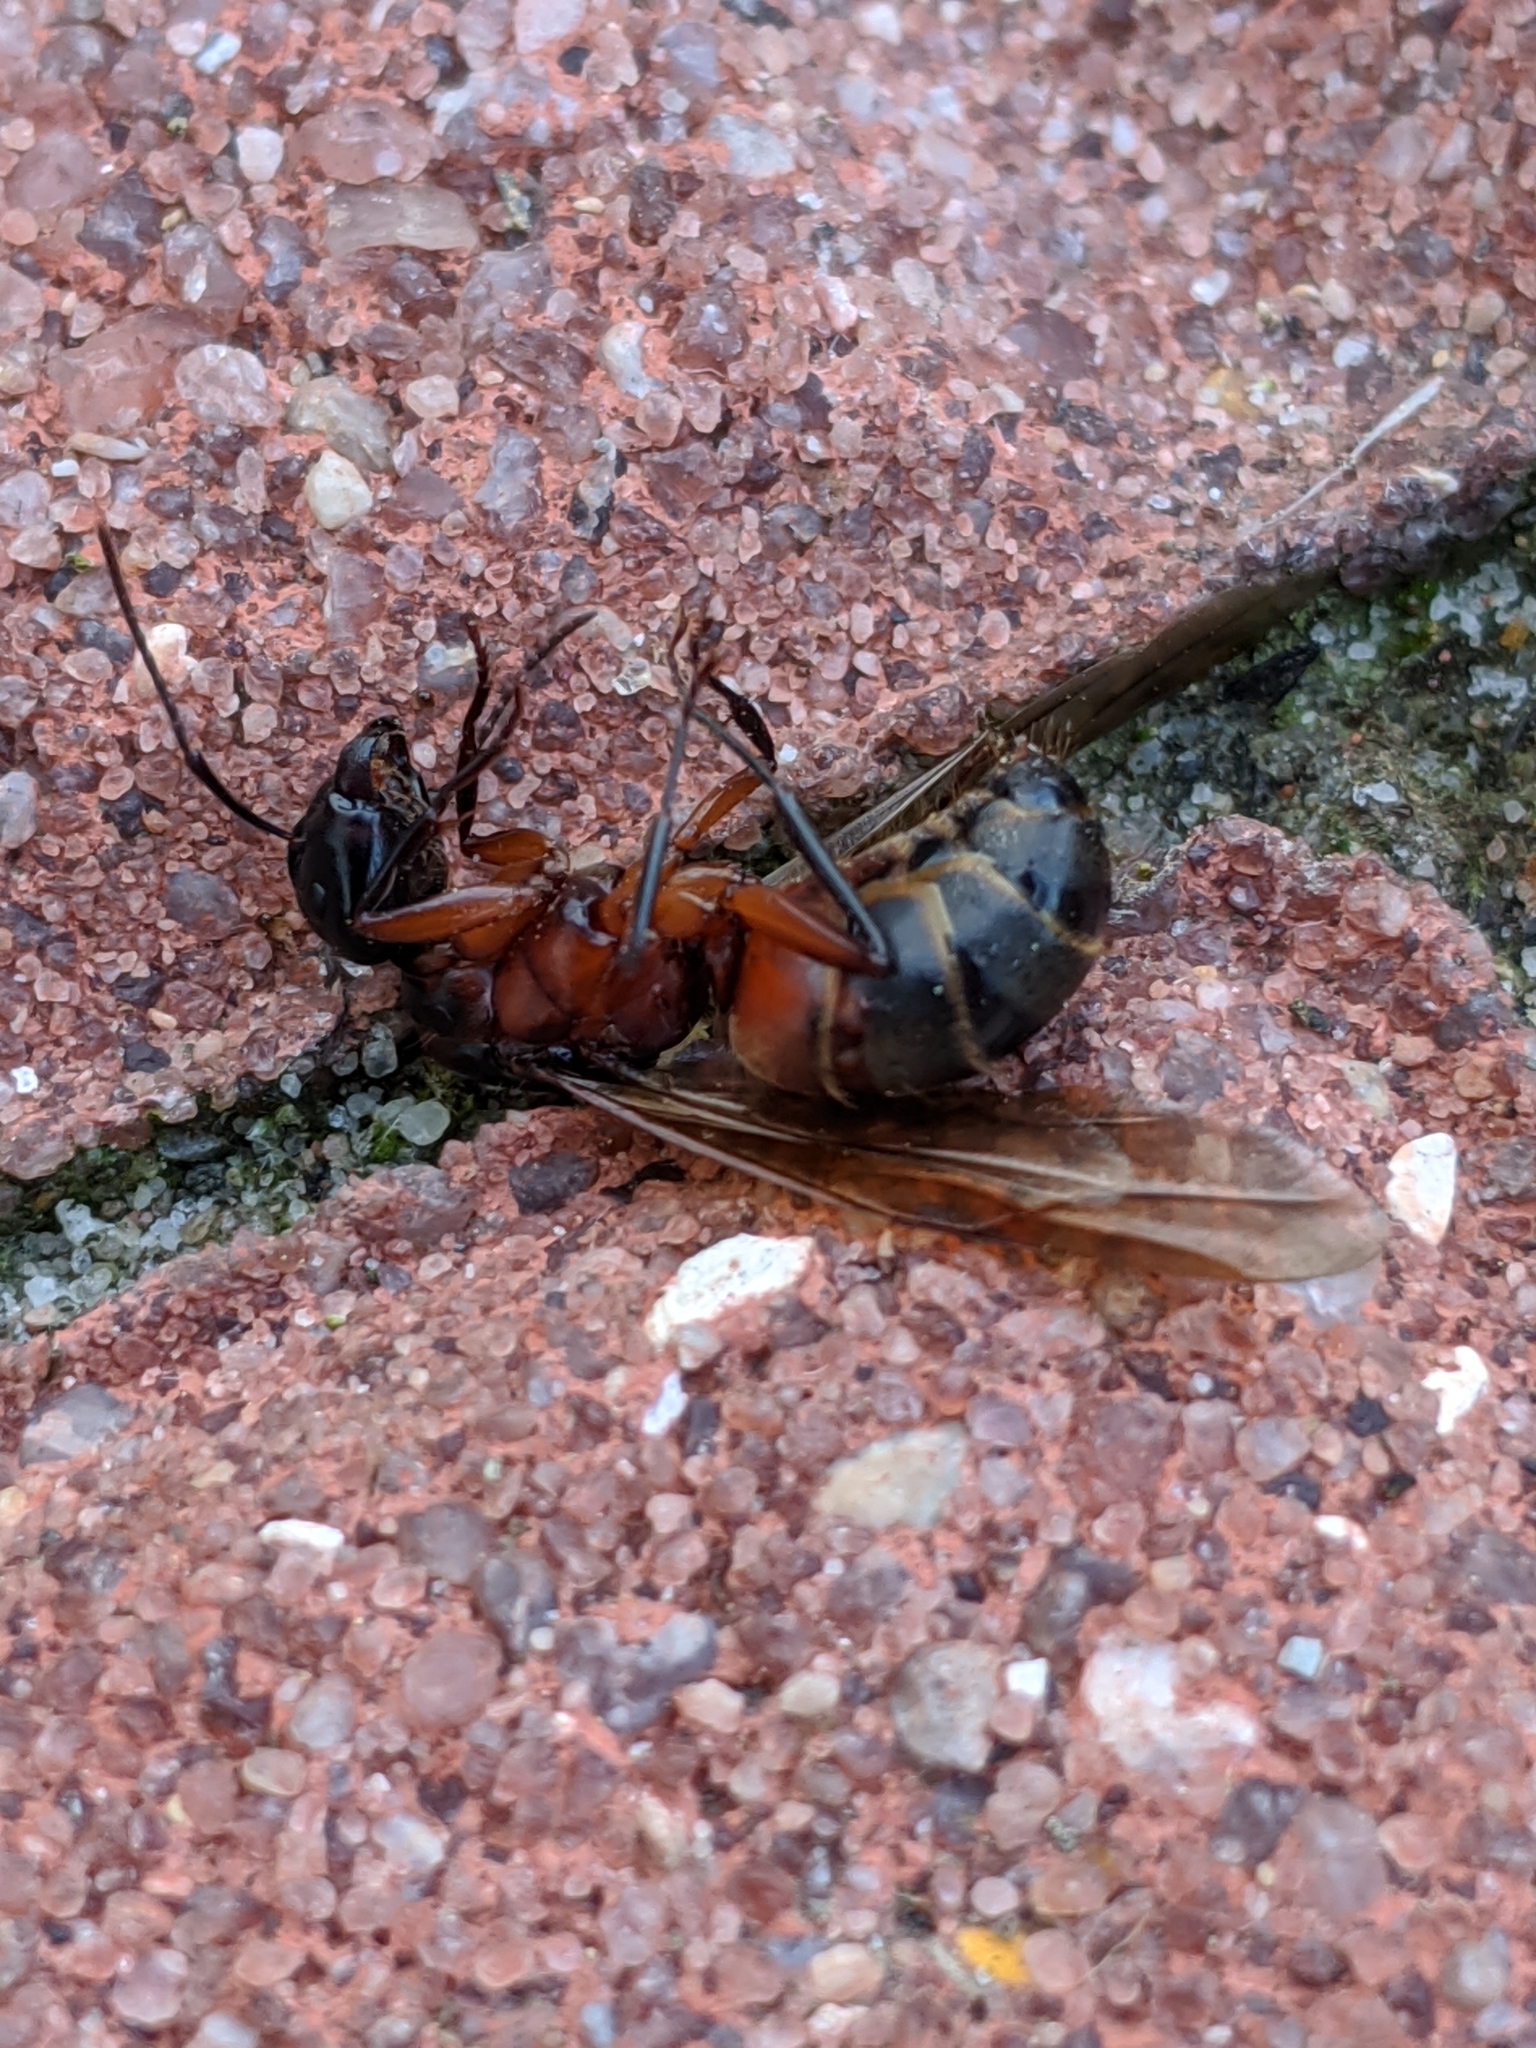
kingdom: Animalia
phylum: Arthropoda
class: Insecta
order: Hymenoptera
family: Formicidae
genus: Camponotus
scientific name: Camponotus chromaiodes
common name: Red carpenter ant
